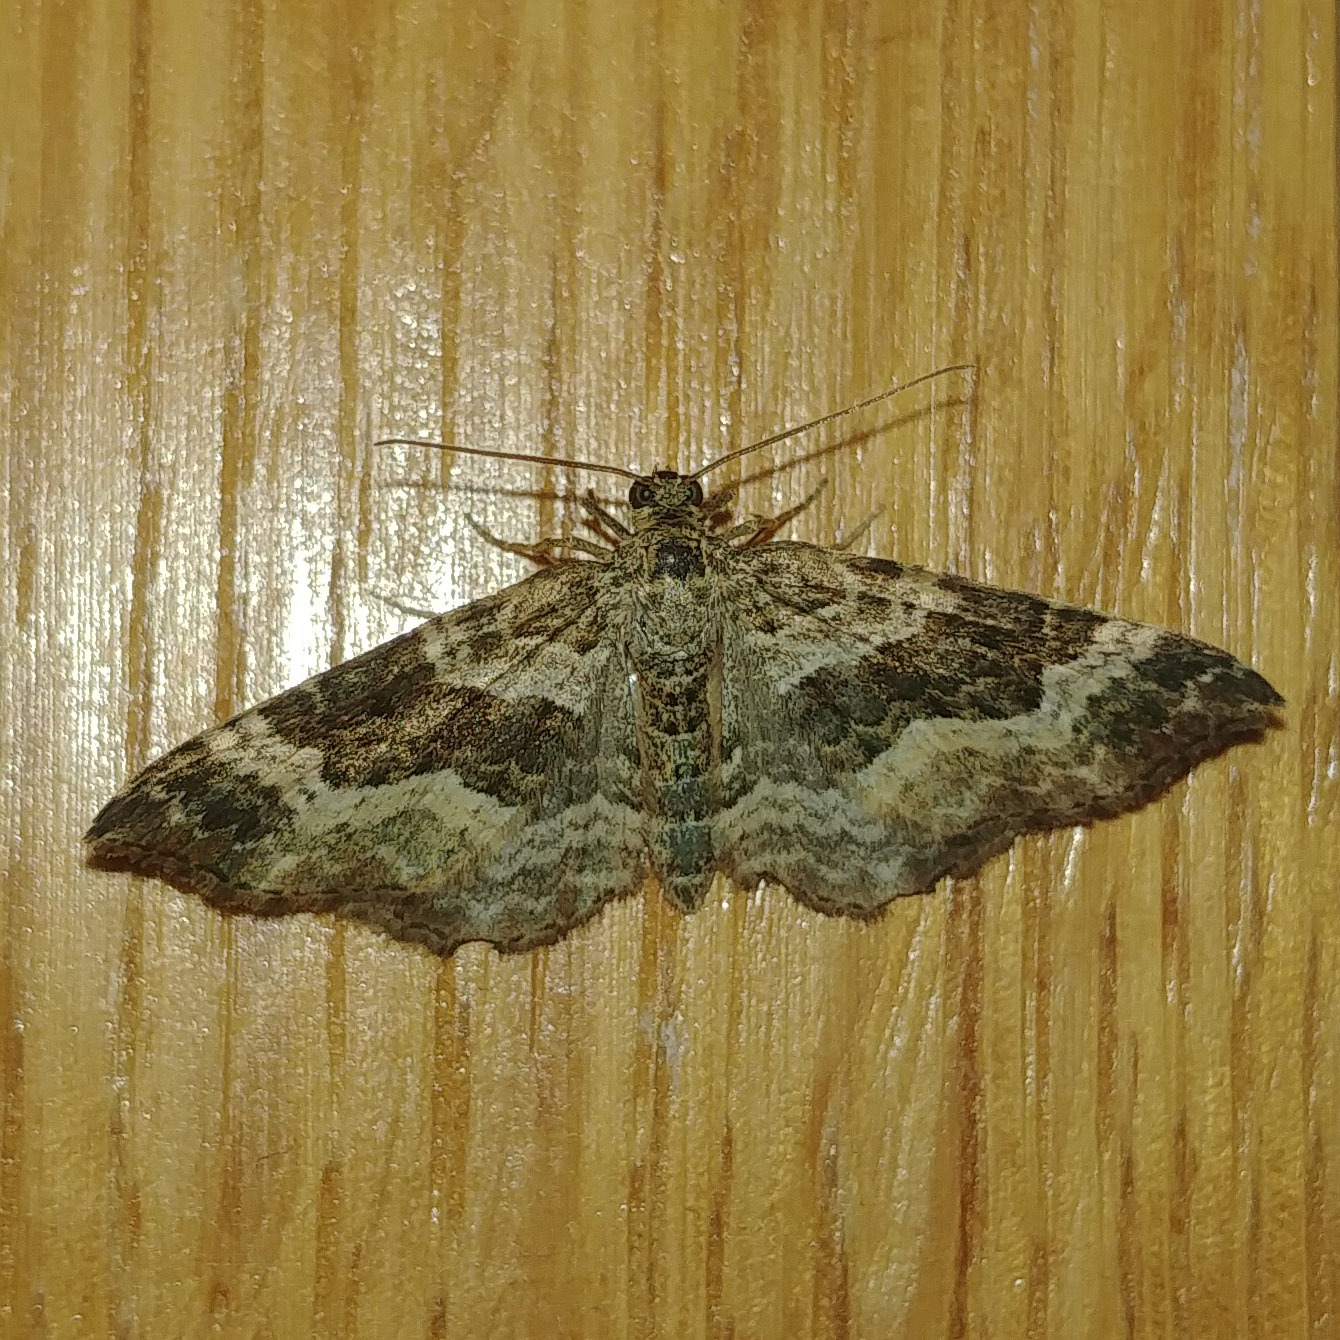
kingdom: Animalia
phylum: Arthropoda
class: Insecta
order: Lepidoptera
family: Geometridae
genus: Epirrhoe
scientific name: Epirrhoe alternata
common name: Common carpet
